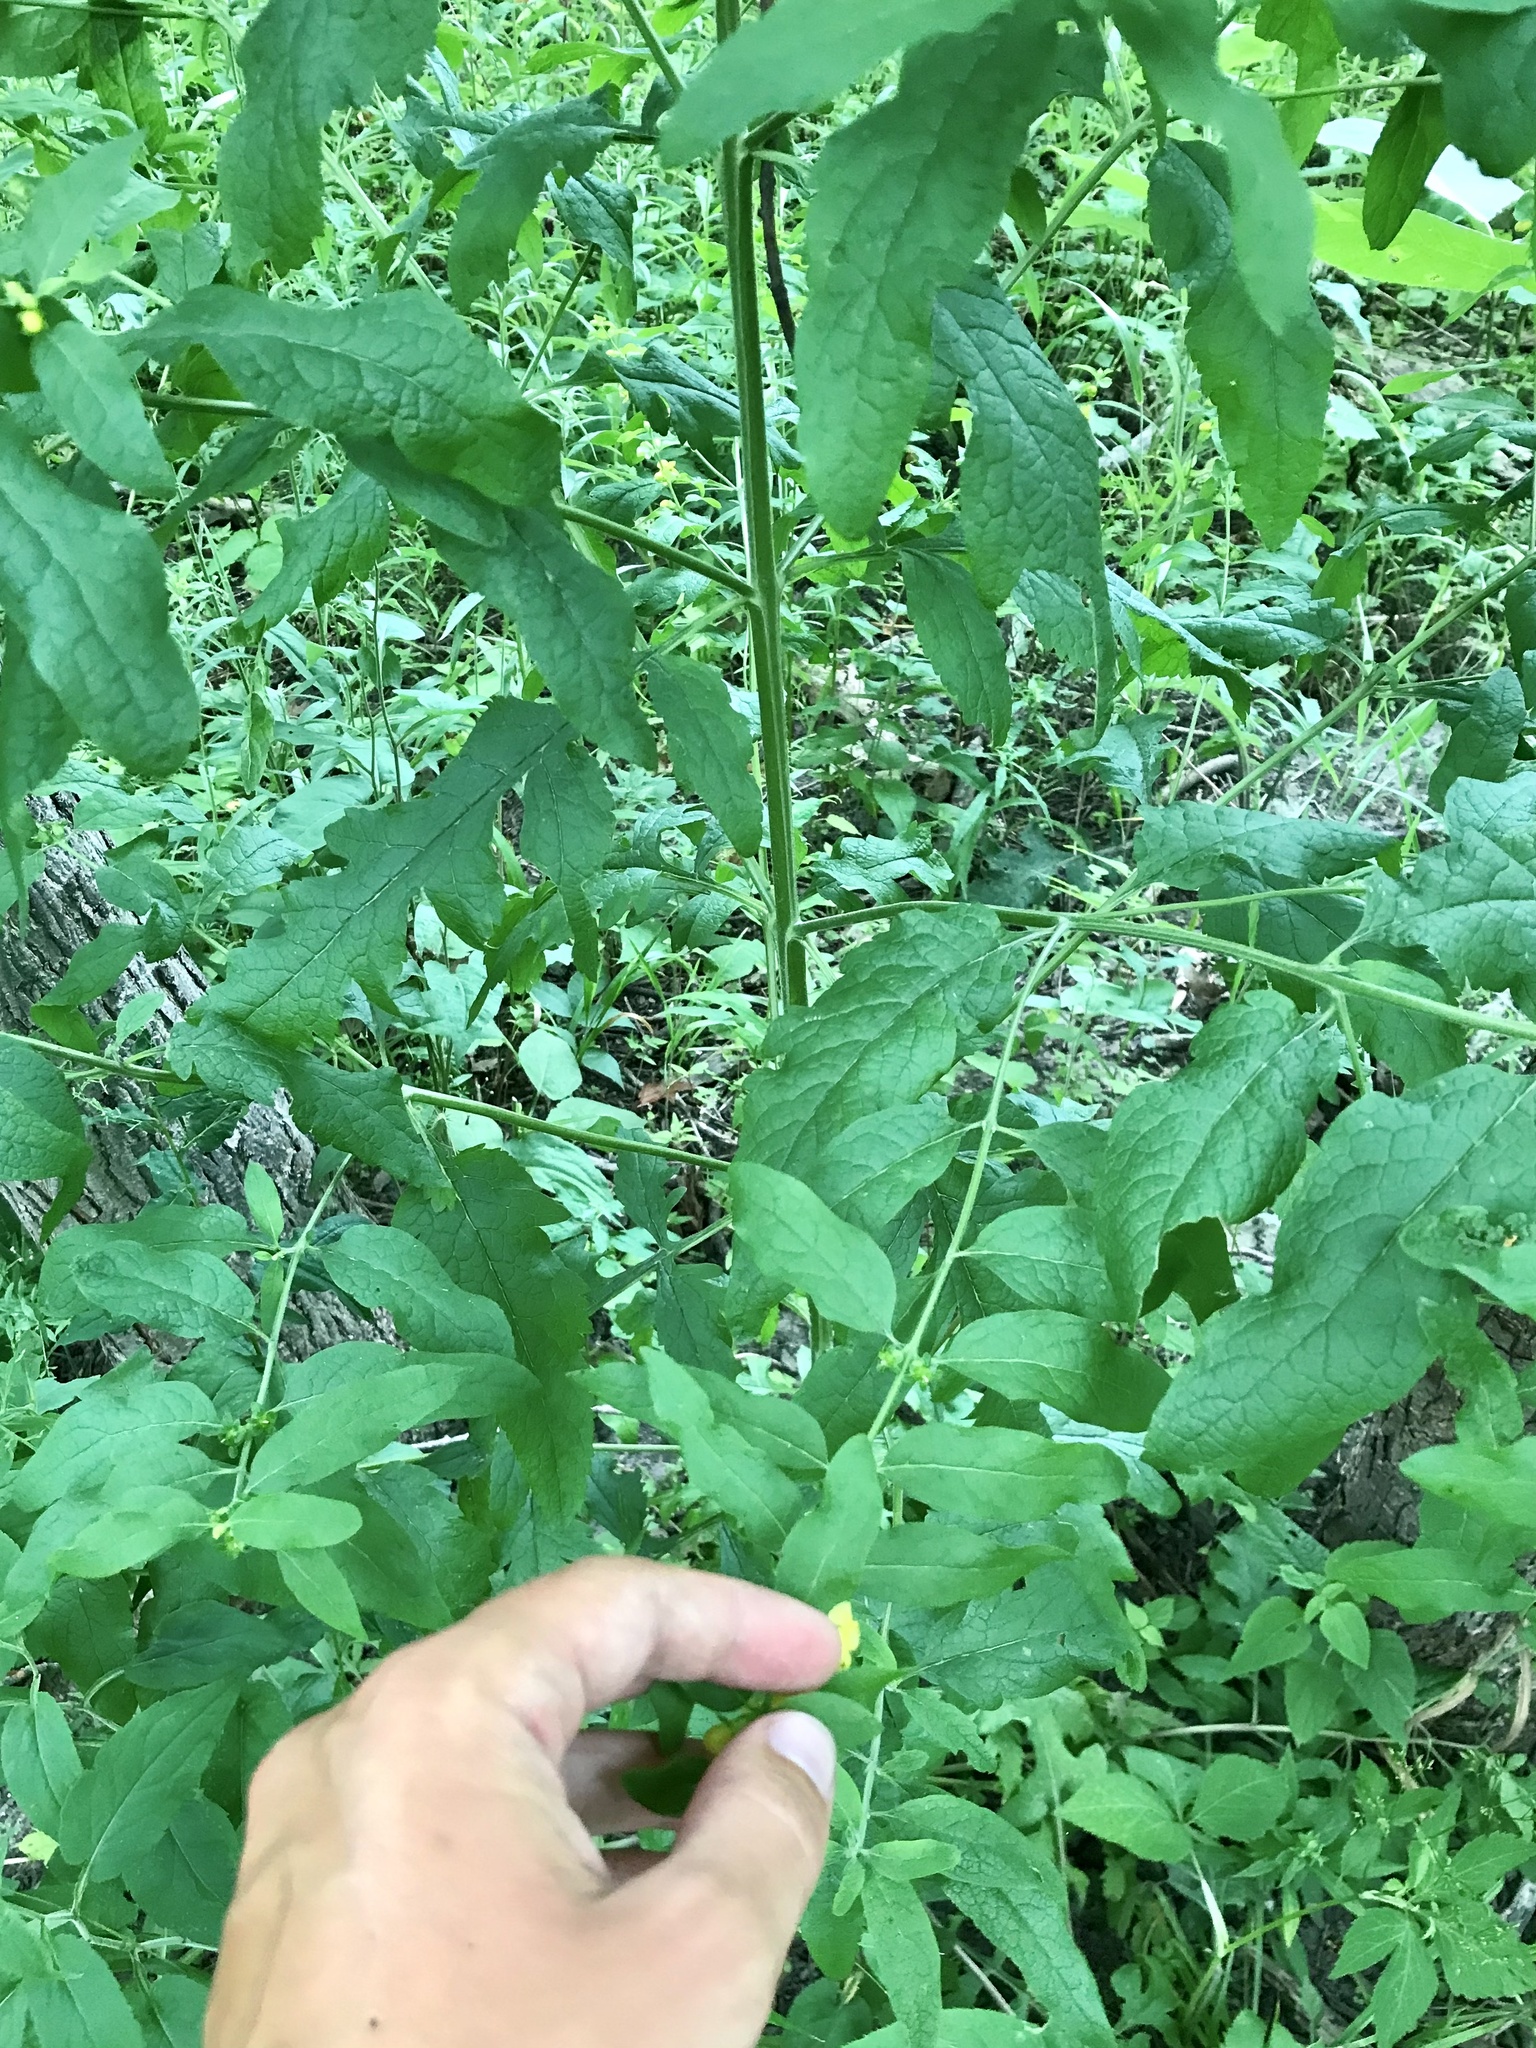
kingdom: Plantae
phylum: Tracheophyta
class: Magnoliopsida
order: Lamiales
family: Orobanchaceae
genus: Dasistoma
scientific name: Dasistoma macrophyllum
